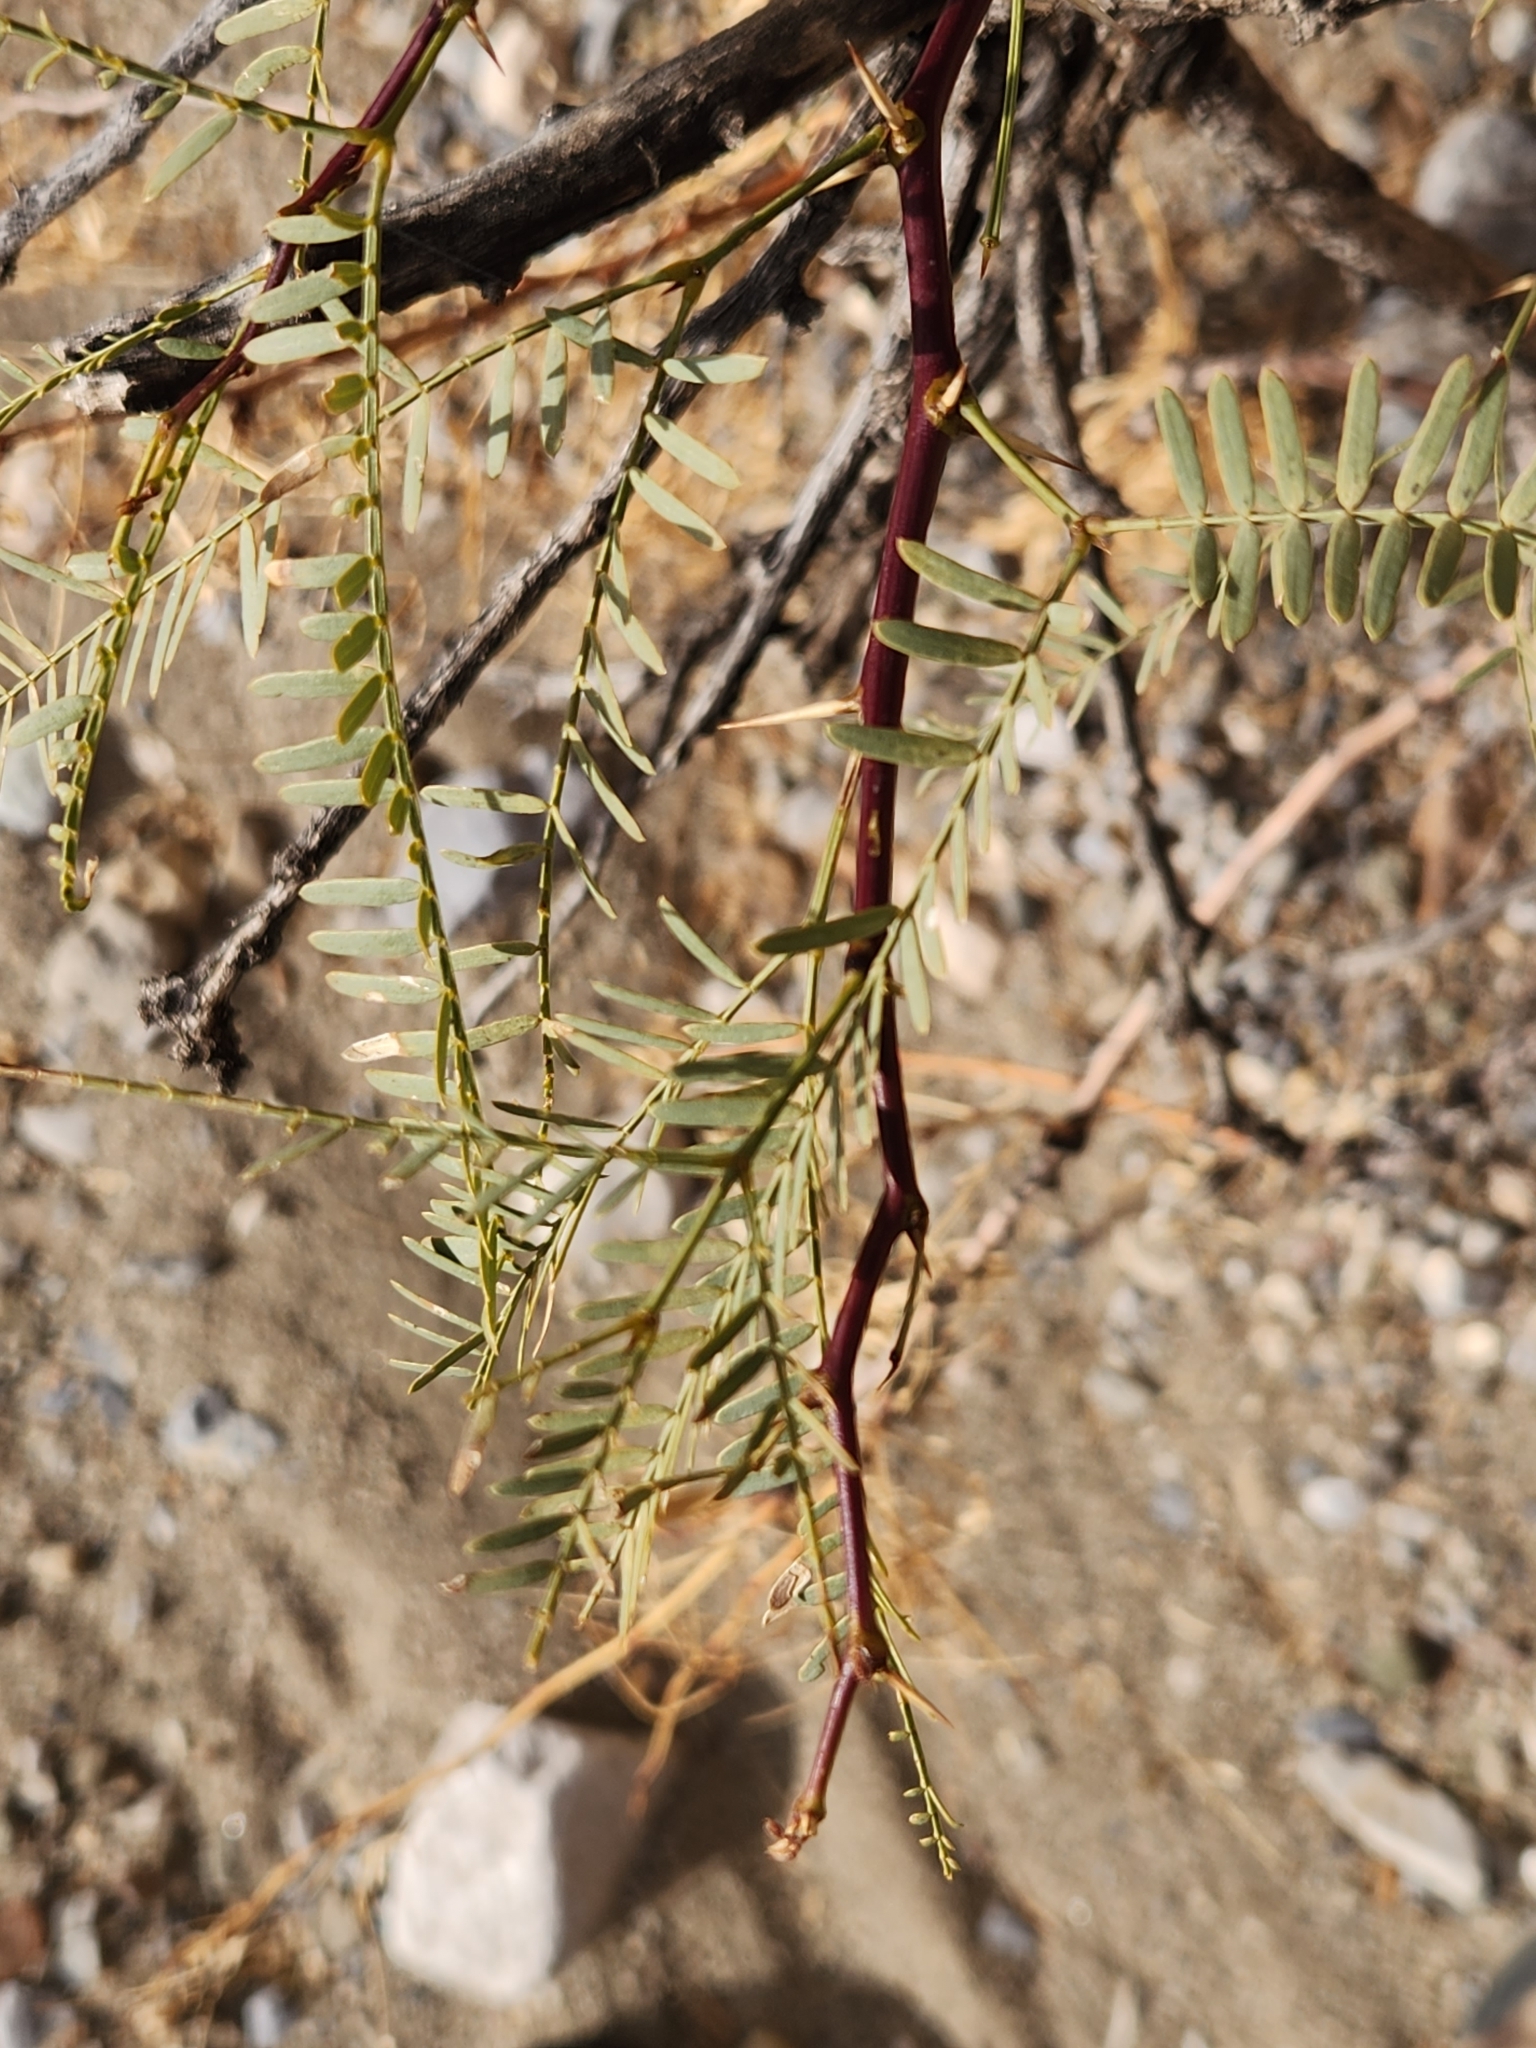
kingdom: Plantae
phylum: Tracheophyta
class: Magnoliopsida
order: Fabales
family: Fabaceae
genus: Prosopis
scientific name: Prosopis pubescens
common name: Screw-bean
